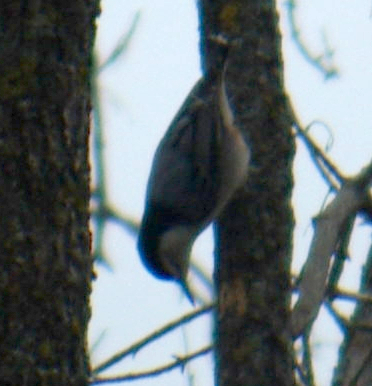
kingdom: Animalia
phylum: Chordata
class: Aves
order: Passeriformes
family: Sittidae
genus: Sitta
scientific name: Sitta carolinensis
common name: White-breasted nuthatch
